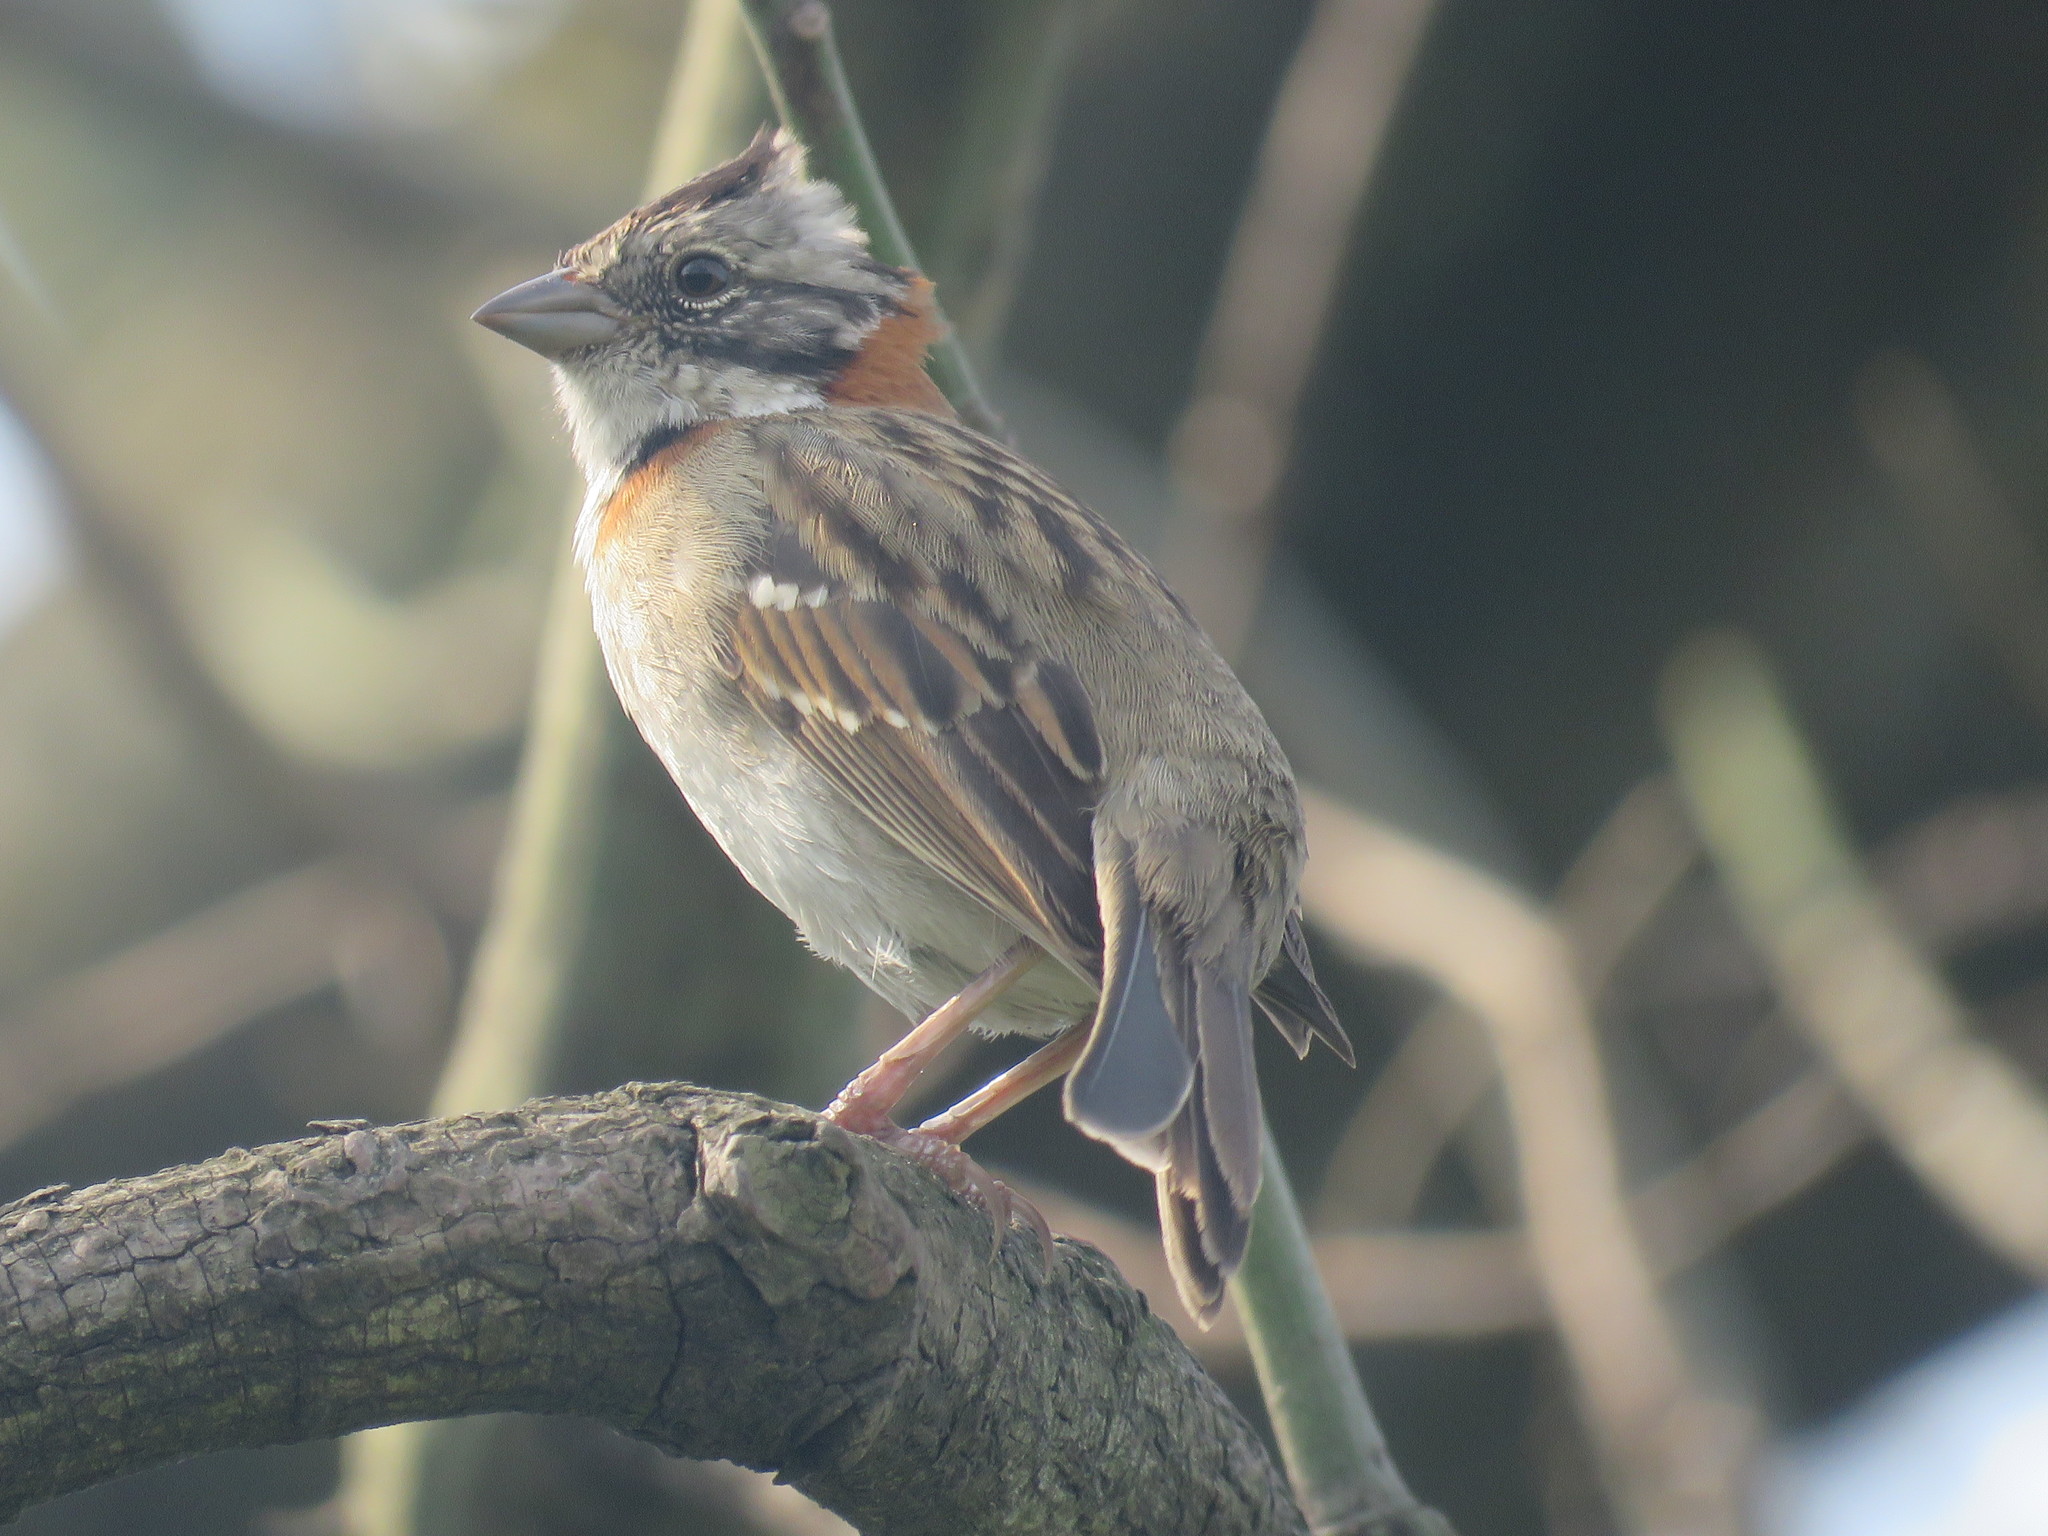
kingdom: Animalia
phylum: Chordata
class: Aves
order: Passeriformes
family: Passerellidae
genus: Zonotrichia
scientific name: Zonotrichia capensis
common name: Rufous-collared sparrow
